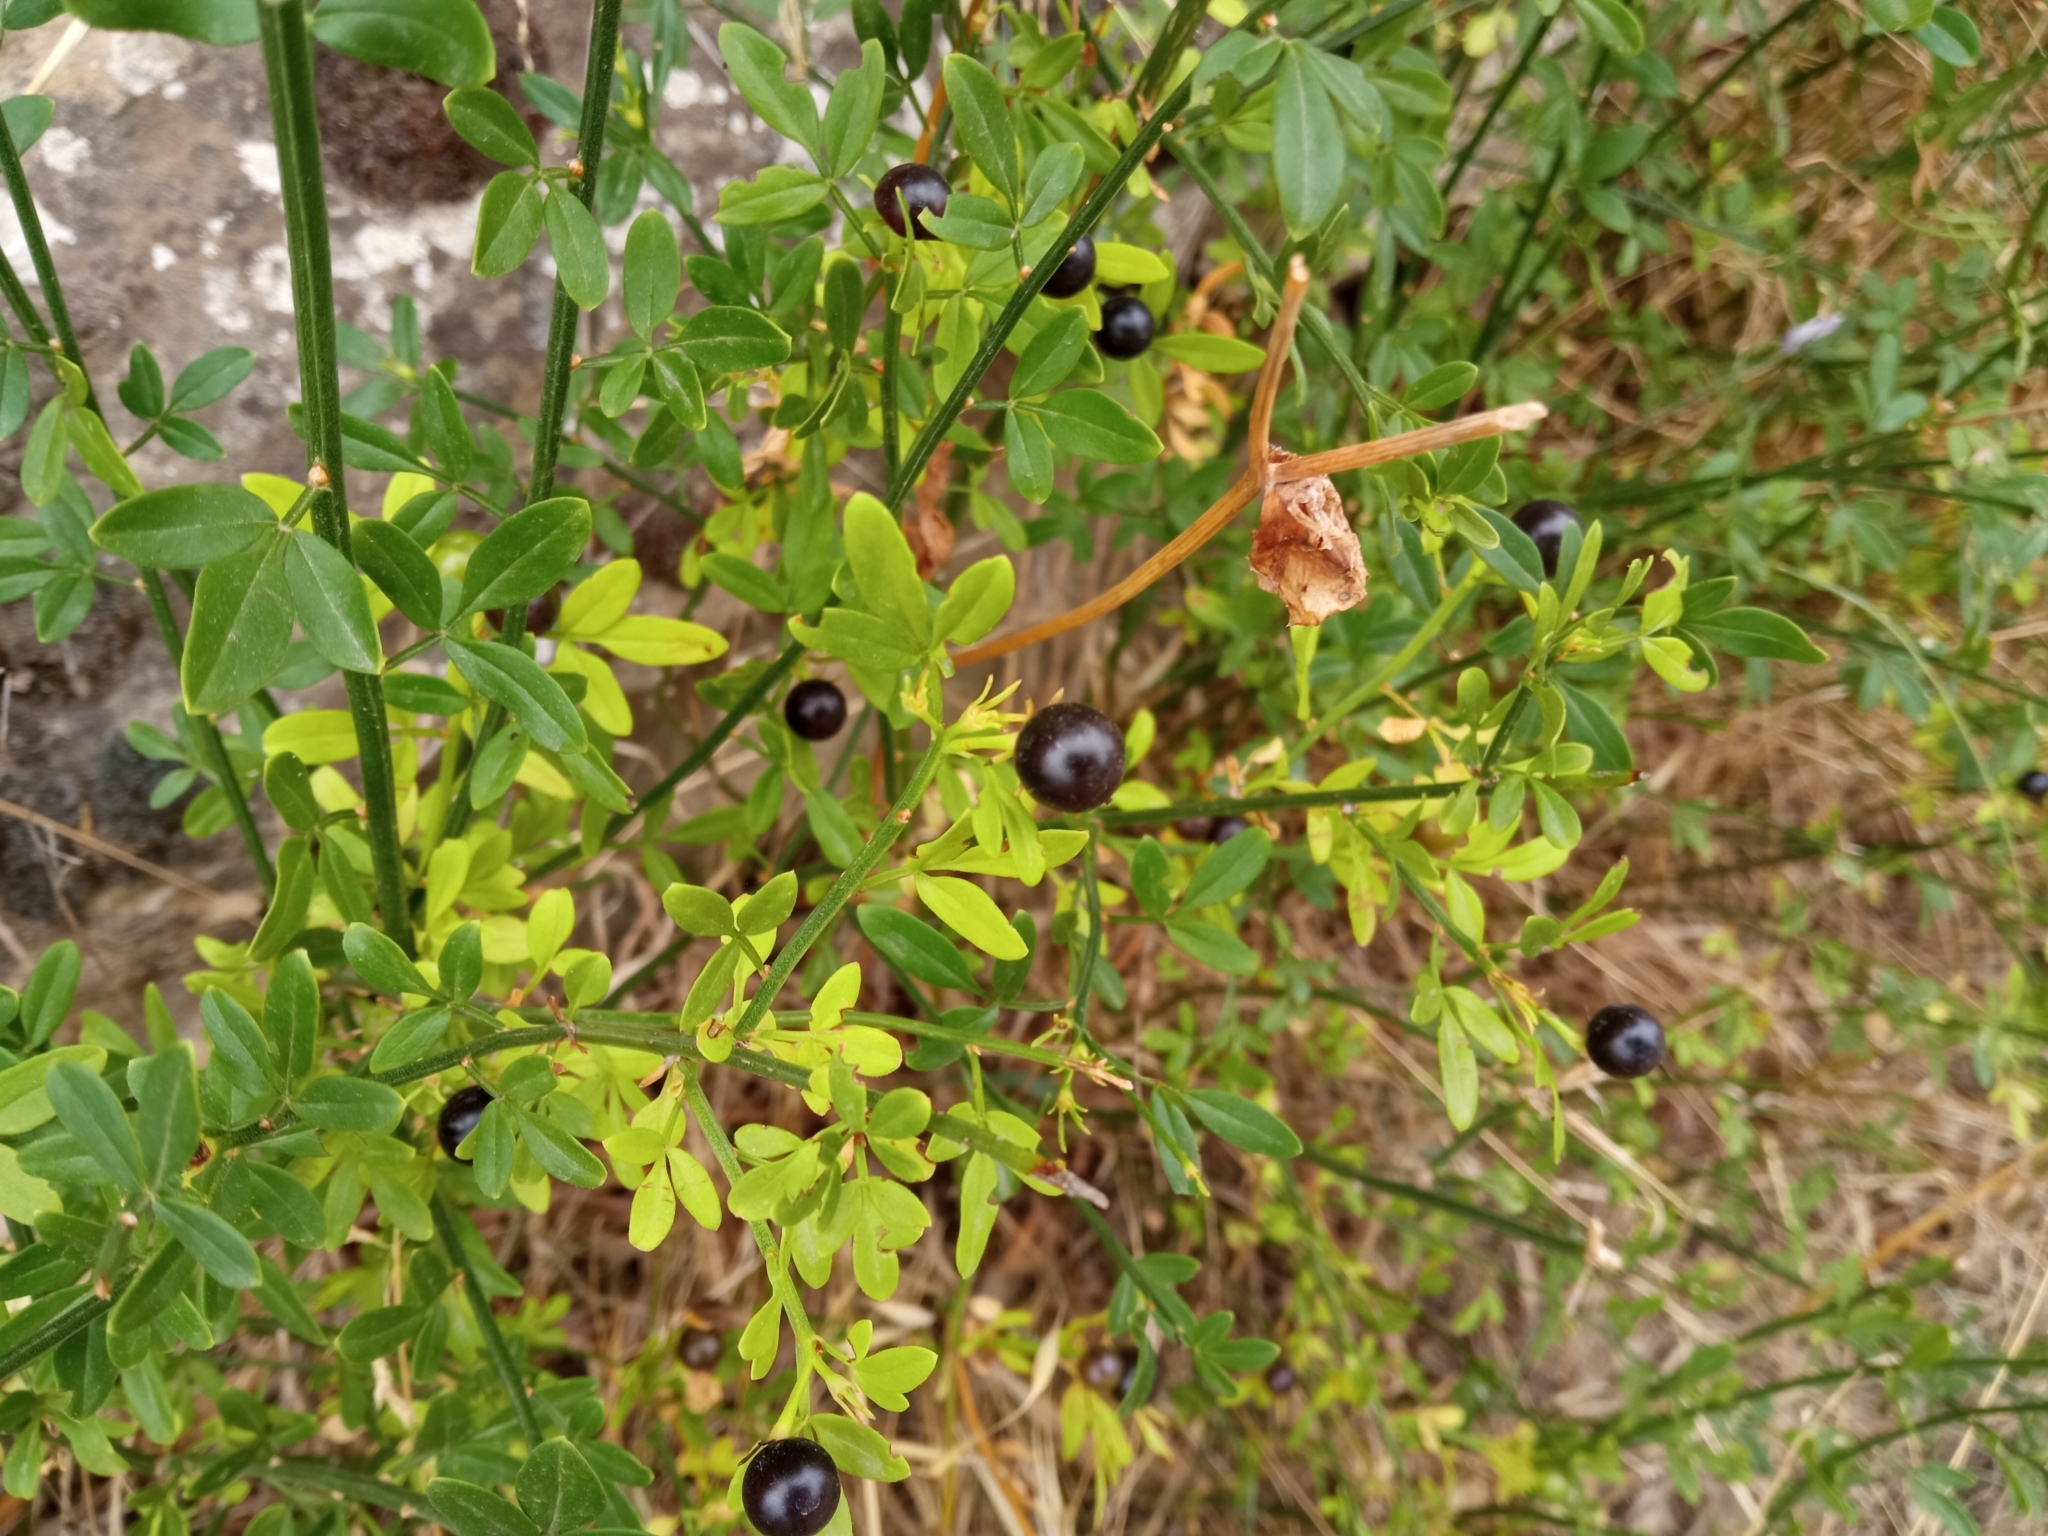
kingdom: Plantae
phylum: Tracheophyta
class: Magnoliopsida
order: Lamiales
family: Oleaceae
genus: Chrysojasminum
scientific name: Chrysojasminum fruticans
